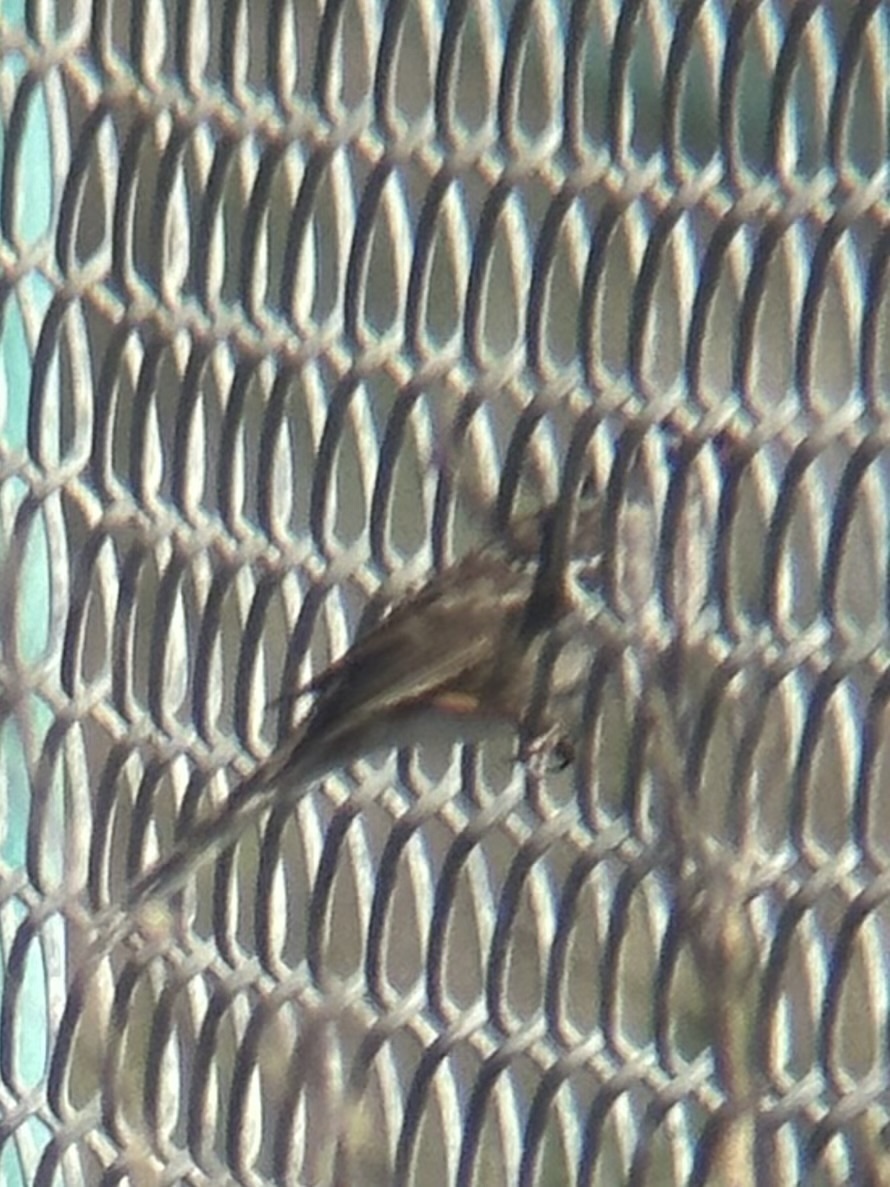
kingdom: Animalia
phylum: Chordata
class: Aves
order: Passeriformes
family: Passerellidae
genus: Zonotrichia
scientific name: Zonotrichia leucophrys
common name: White-crowned sparrow
